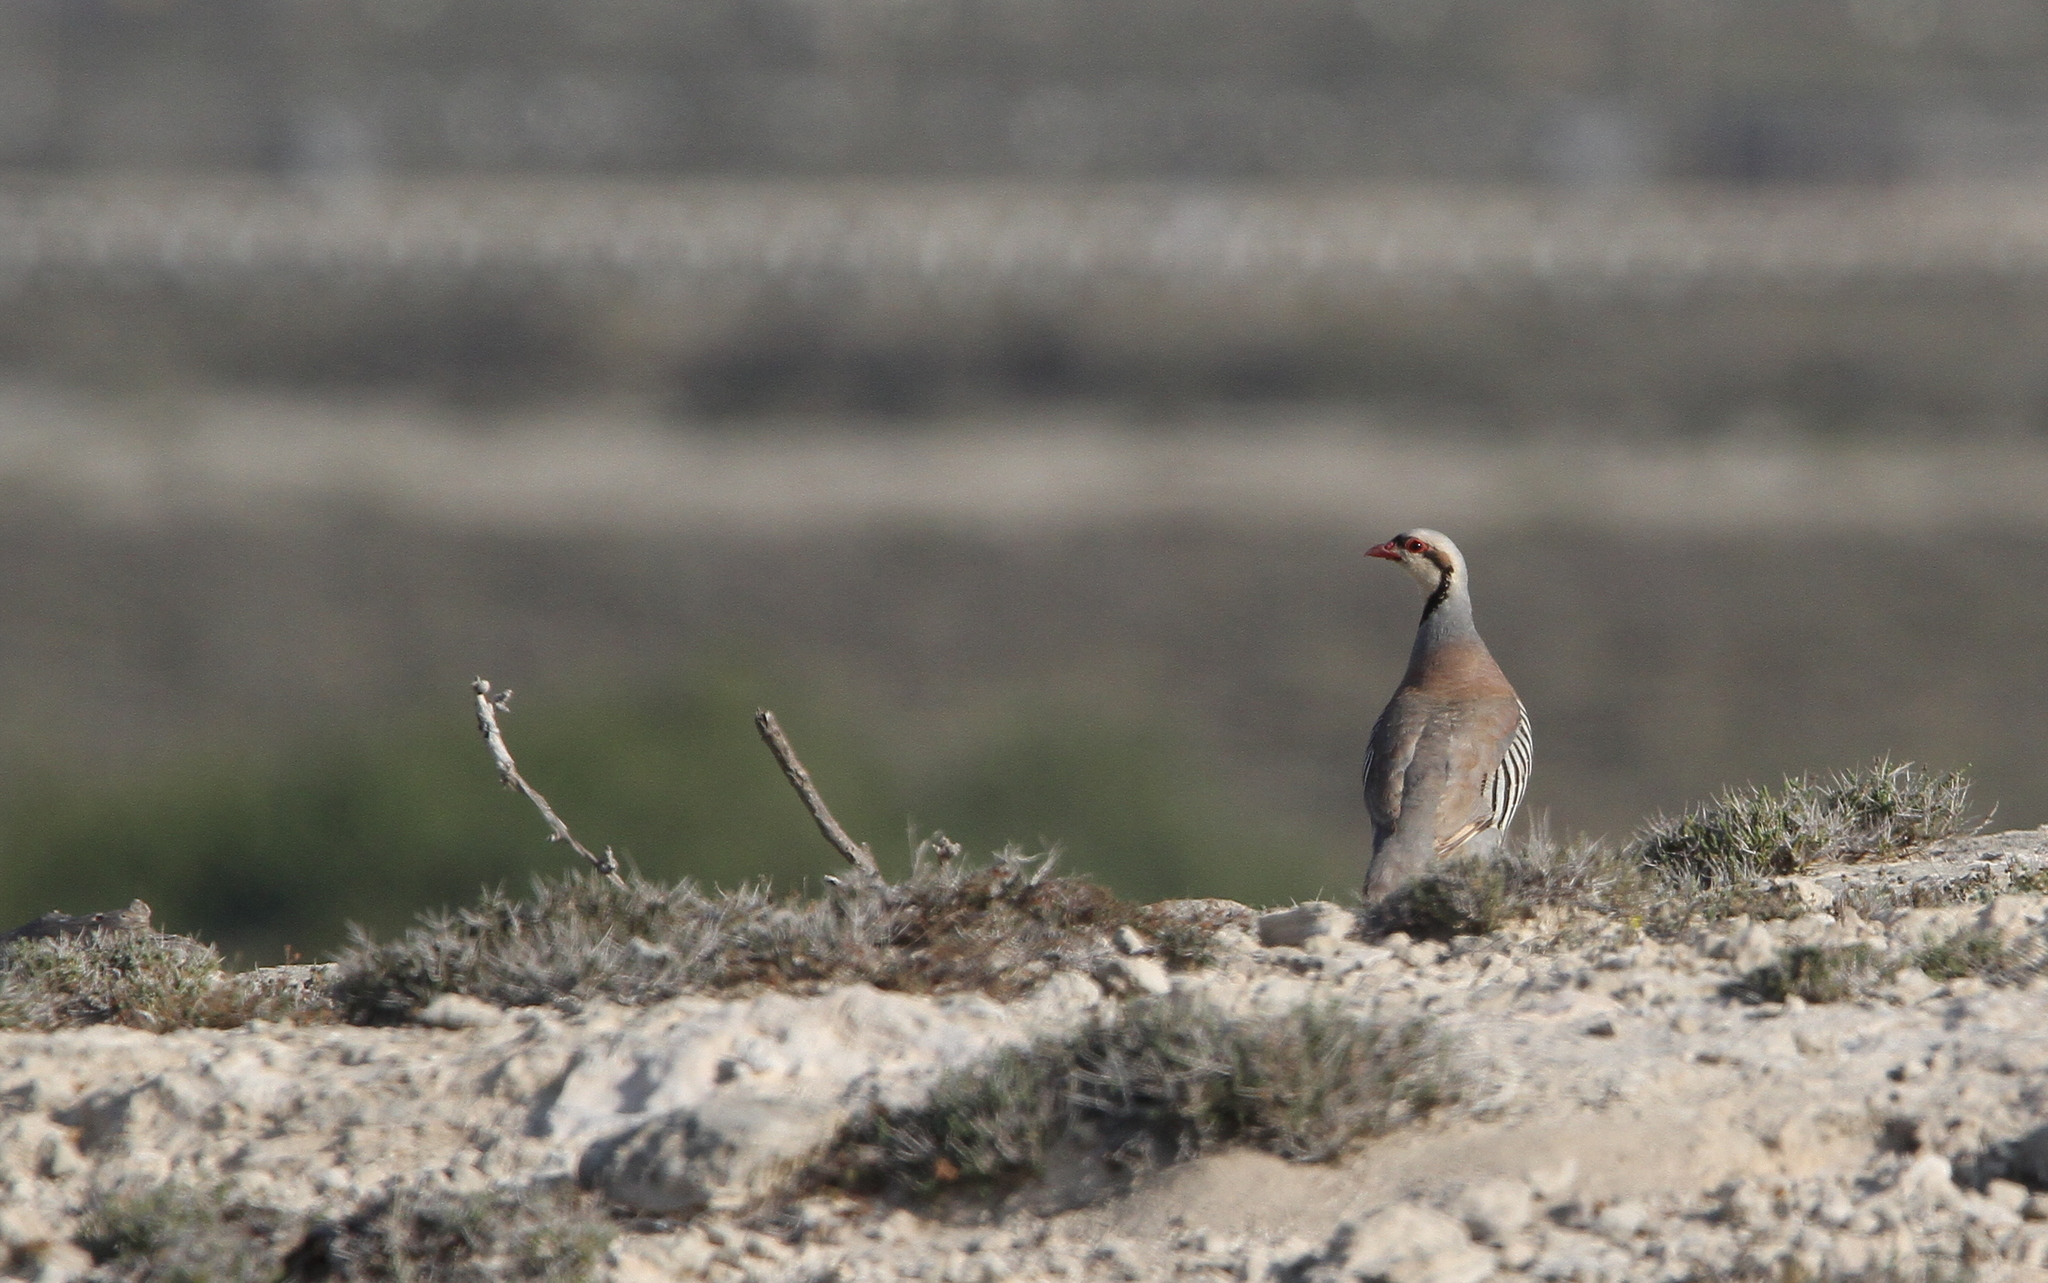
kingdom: Animalia
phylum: Chordata
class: Aves
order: Galliformes
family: Phasianidae
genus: Alectoris
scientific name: Alectoris chukar
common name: Chukar
